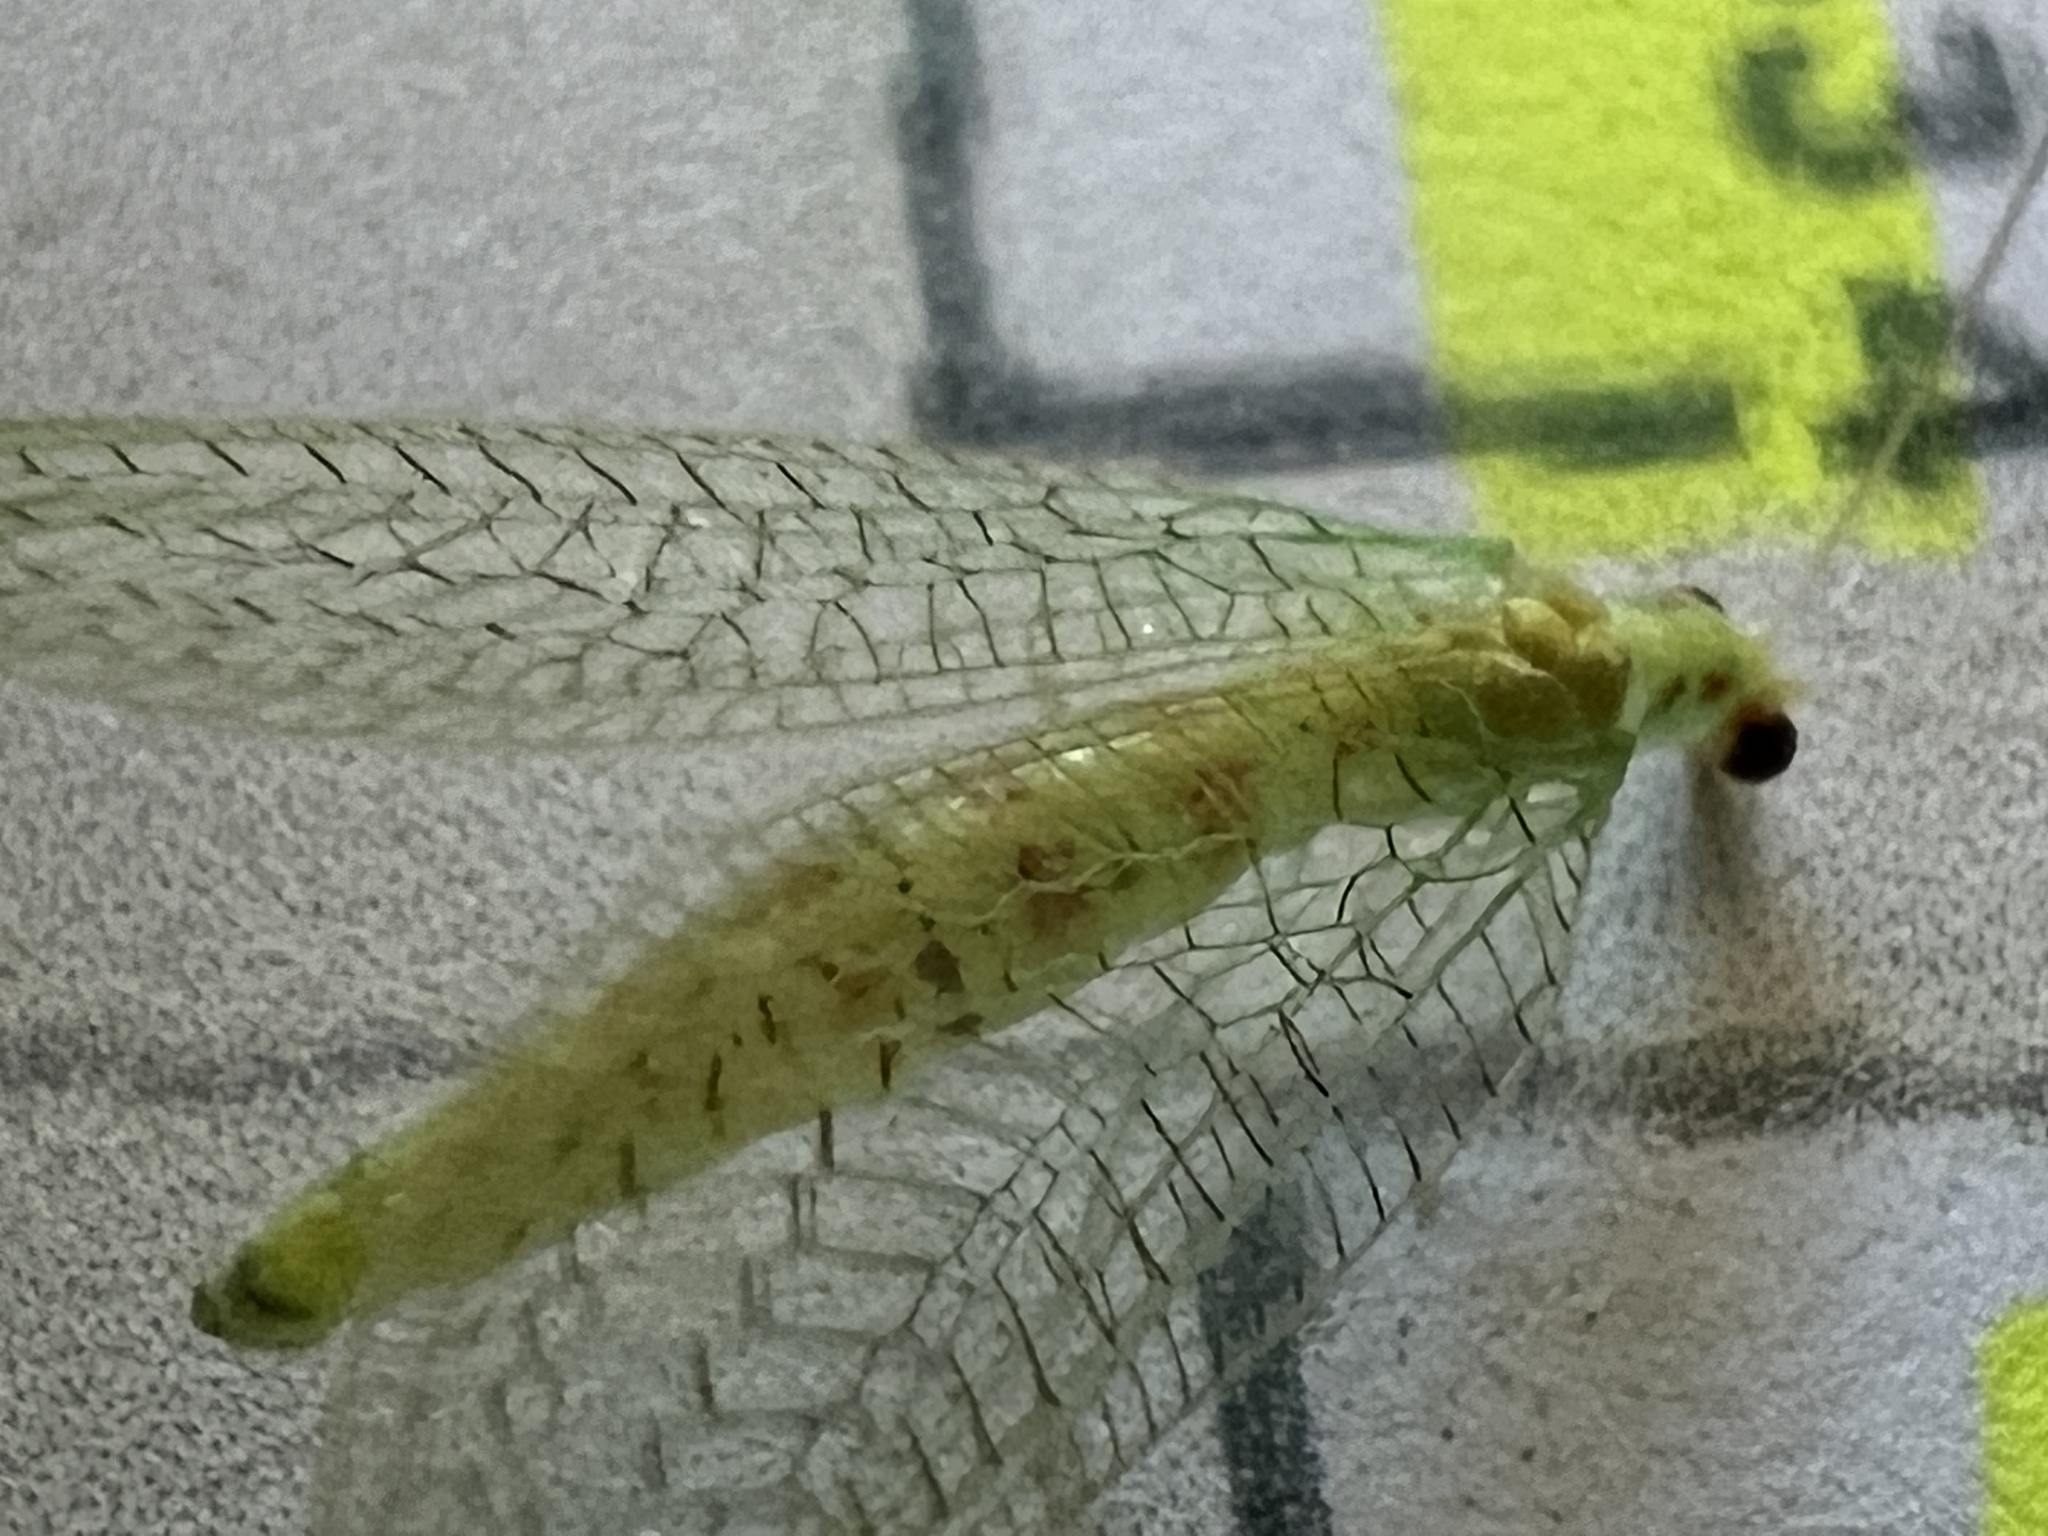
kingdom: Animalia
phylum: Arthropoda
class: Insecta
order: Neuroptera
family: Chrysopidae
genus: Chrysopa
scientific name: Chrysopa quadripunctata
